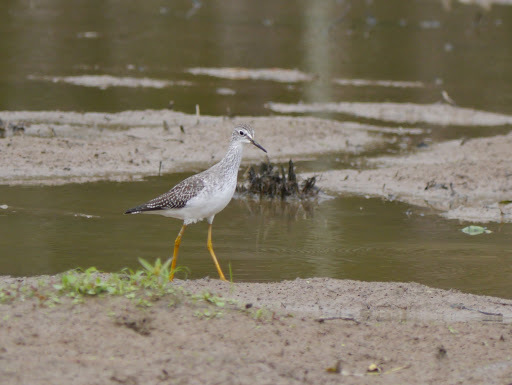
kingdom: Animalia
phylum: Chordata
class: Aves
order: Charadriiformes
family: Scolopacidae
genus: Tringa
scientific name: Tringa flavipes
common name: Lesser yellowlegs
